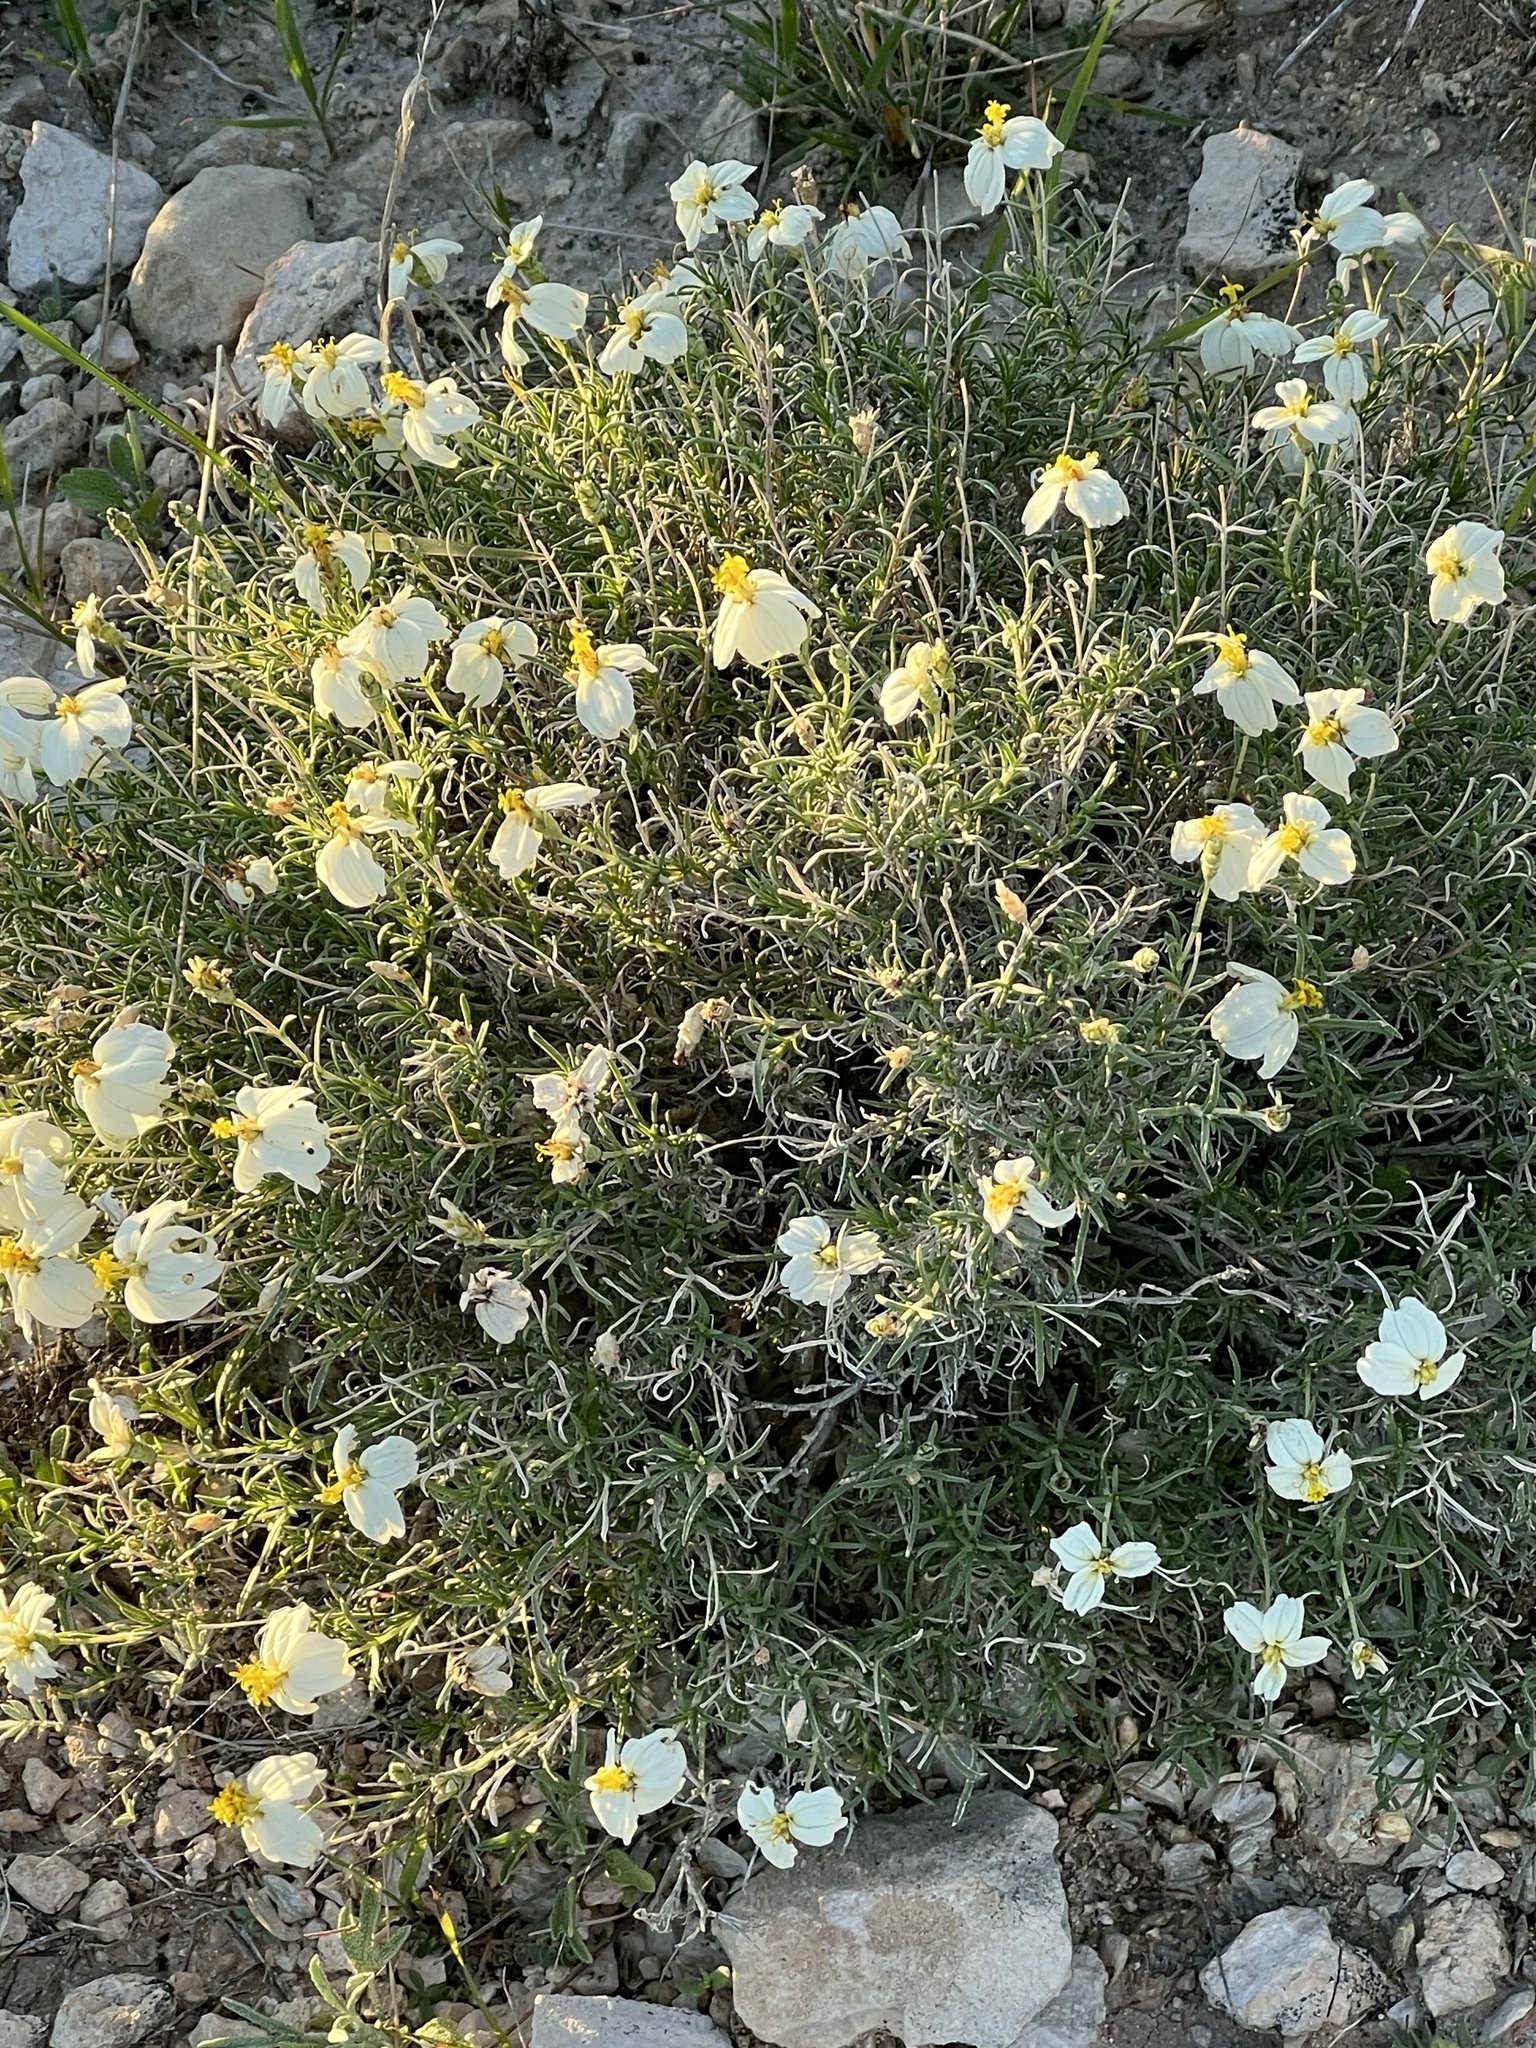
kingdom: Plantae
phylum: Tracheophyta
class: Magnoliopsida
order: Asterales
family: Asteraceae
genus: Zinnia
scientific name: Zinnia acerosa
